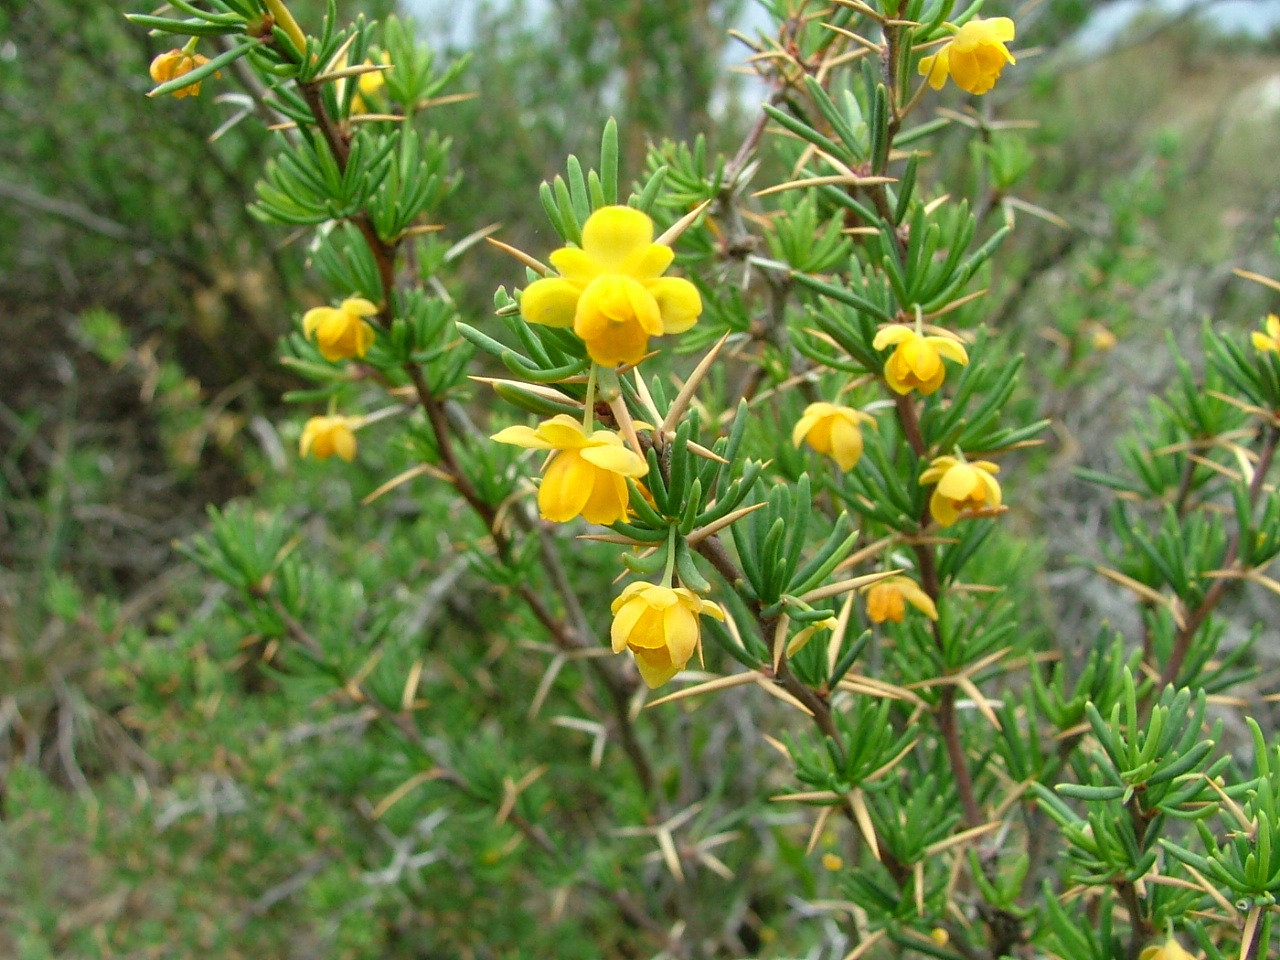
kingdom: Plantae
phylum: Tracheophyta
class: Magnoliopsida
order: Ranunculales
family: Berberidaceae
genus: Berberis
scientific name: Berberis empetrifolia
